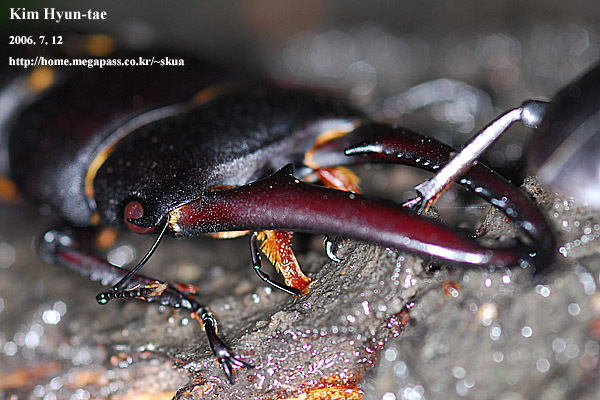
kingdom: Animalia
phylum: Arthropoda
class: Insecta
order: Coleoptera
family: Lucanidae
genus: Serrognathus
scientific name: Serrognathus titanus
